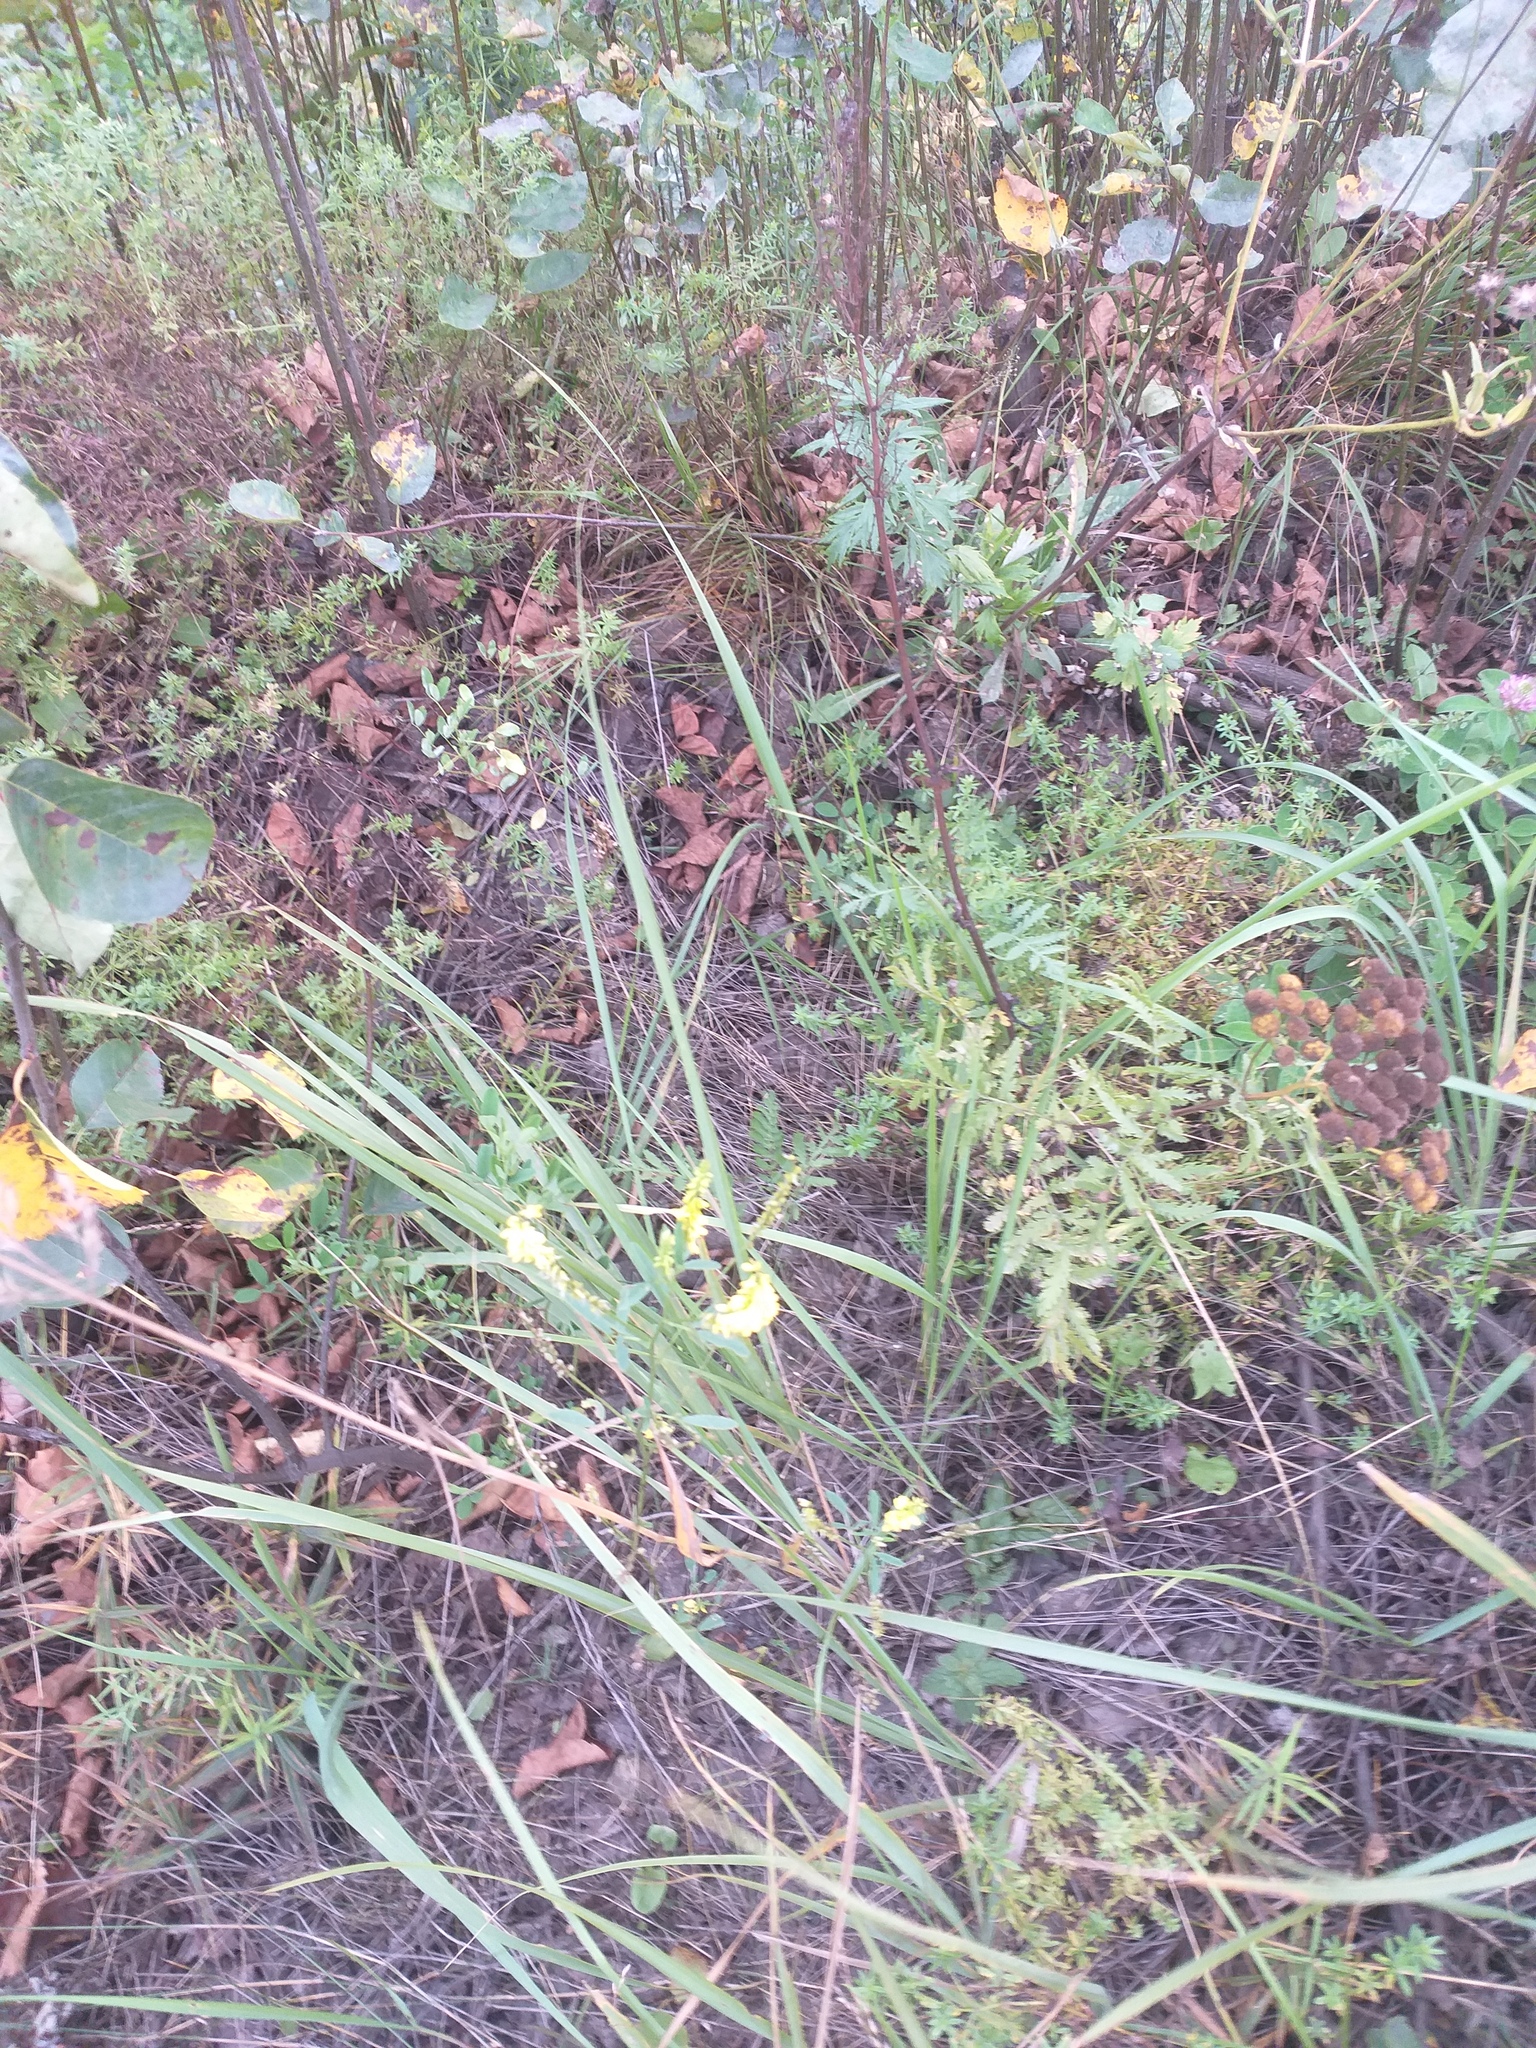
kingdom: Plantae
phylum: Tracheophyta
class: Magnoliopsida
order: Fabales
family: Fabaceae
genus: Melilotus
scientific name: Melilotus officinalis
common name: Sweetclover
